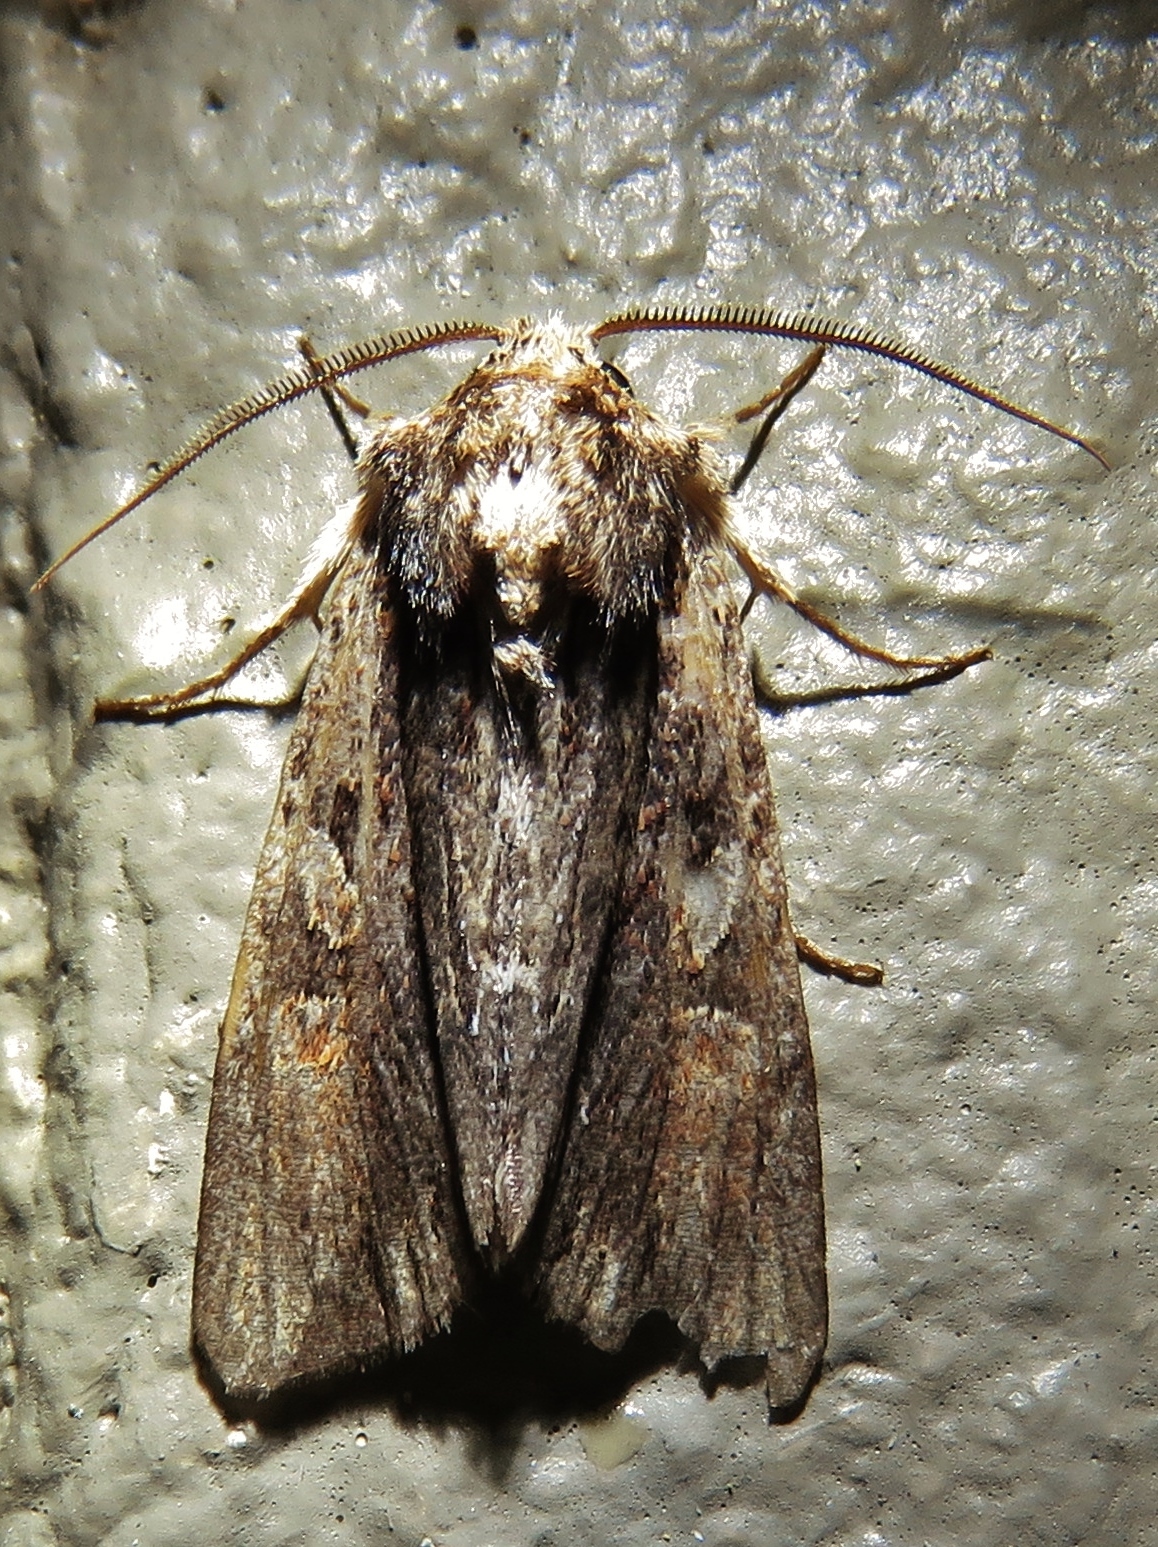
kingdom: Animalia
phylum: Arthropoda
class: Insecta
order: Lepidoptera
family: Noctuidae
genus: Achatia
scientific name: Achatia confusa
